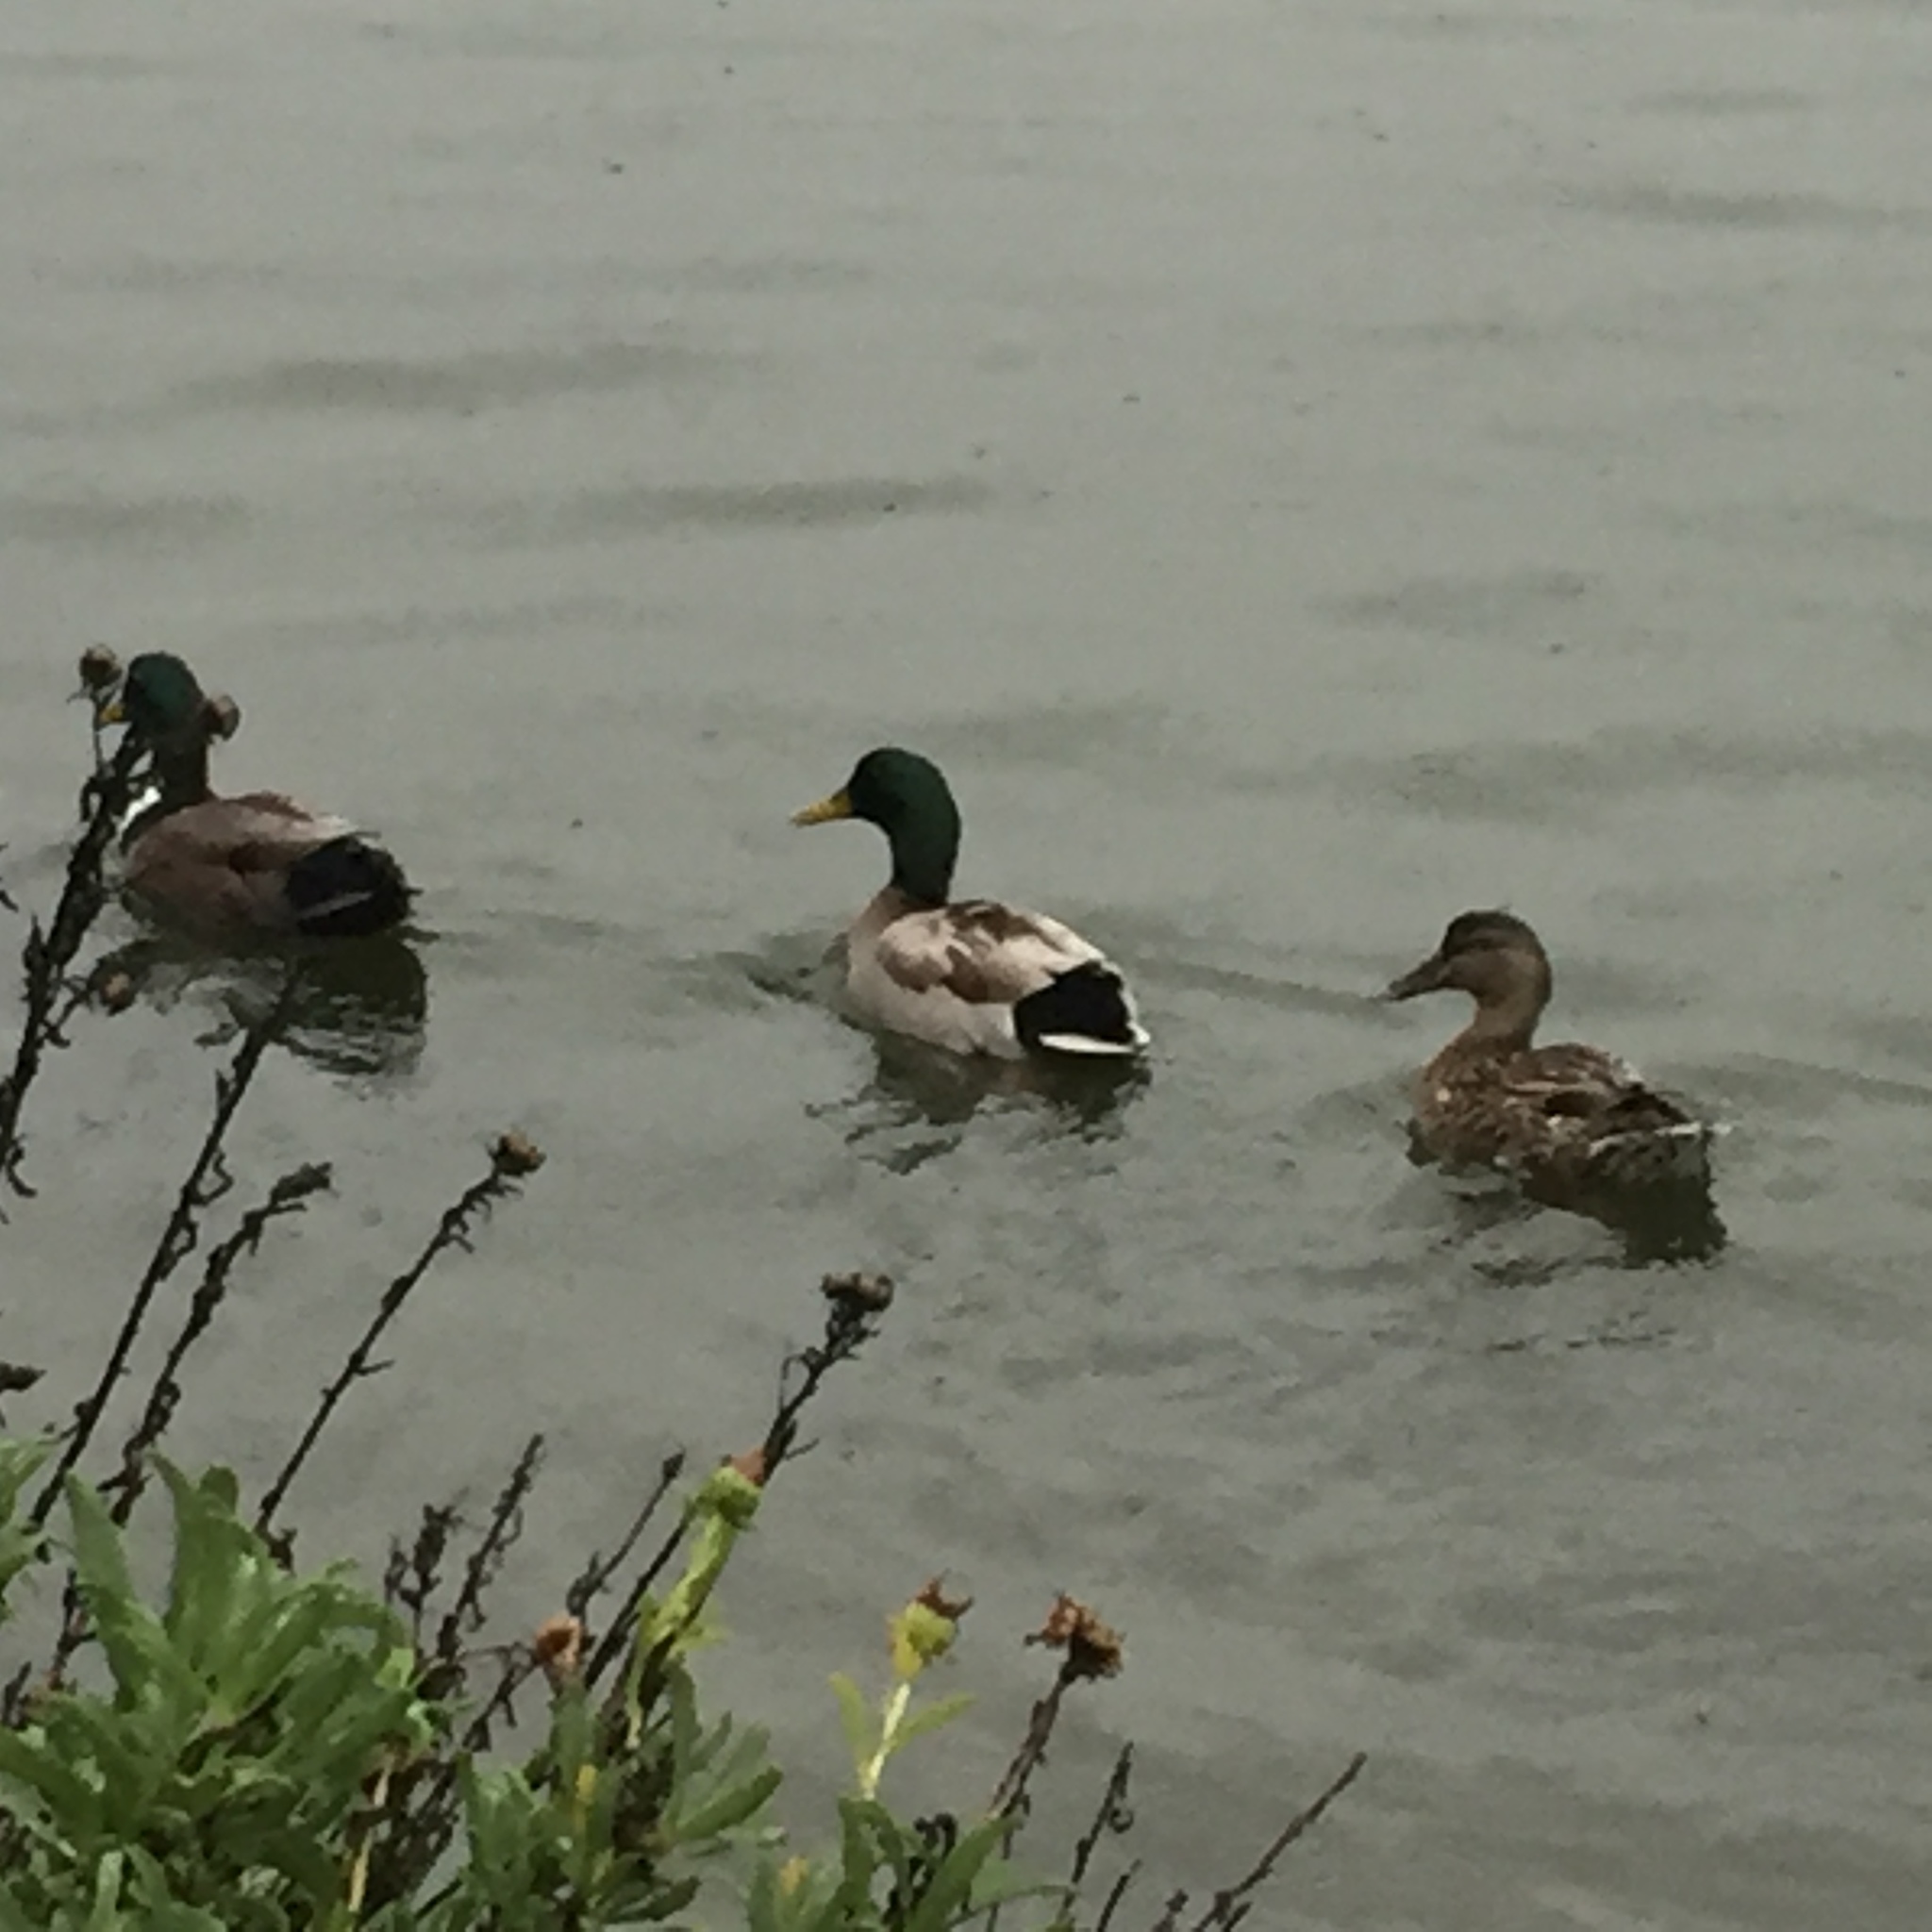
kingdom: Animalia
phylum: Chordata
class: Aves
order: Anseriformes
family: Anatidae
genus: Anas
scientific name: Anas platyrhynchos
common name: Mallard
